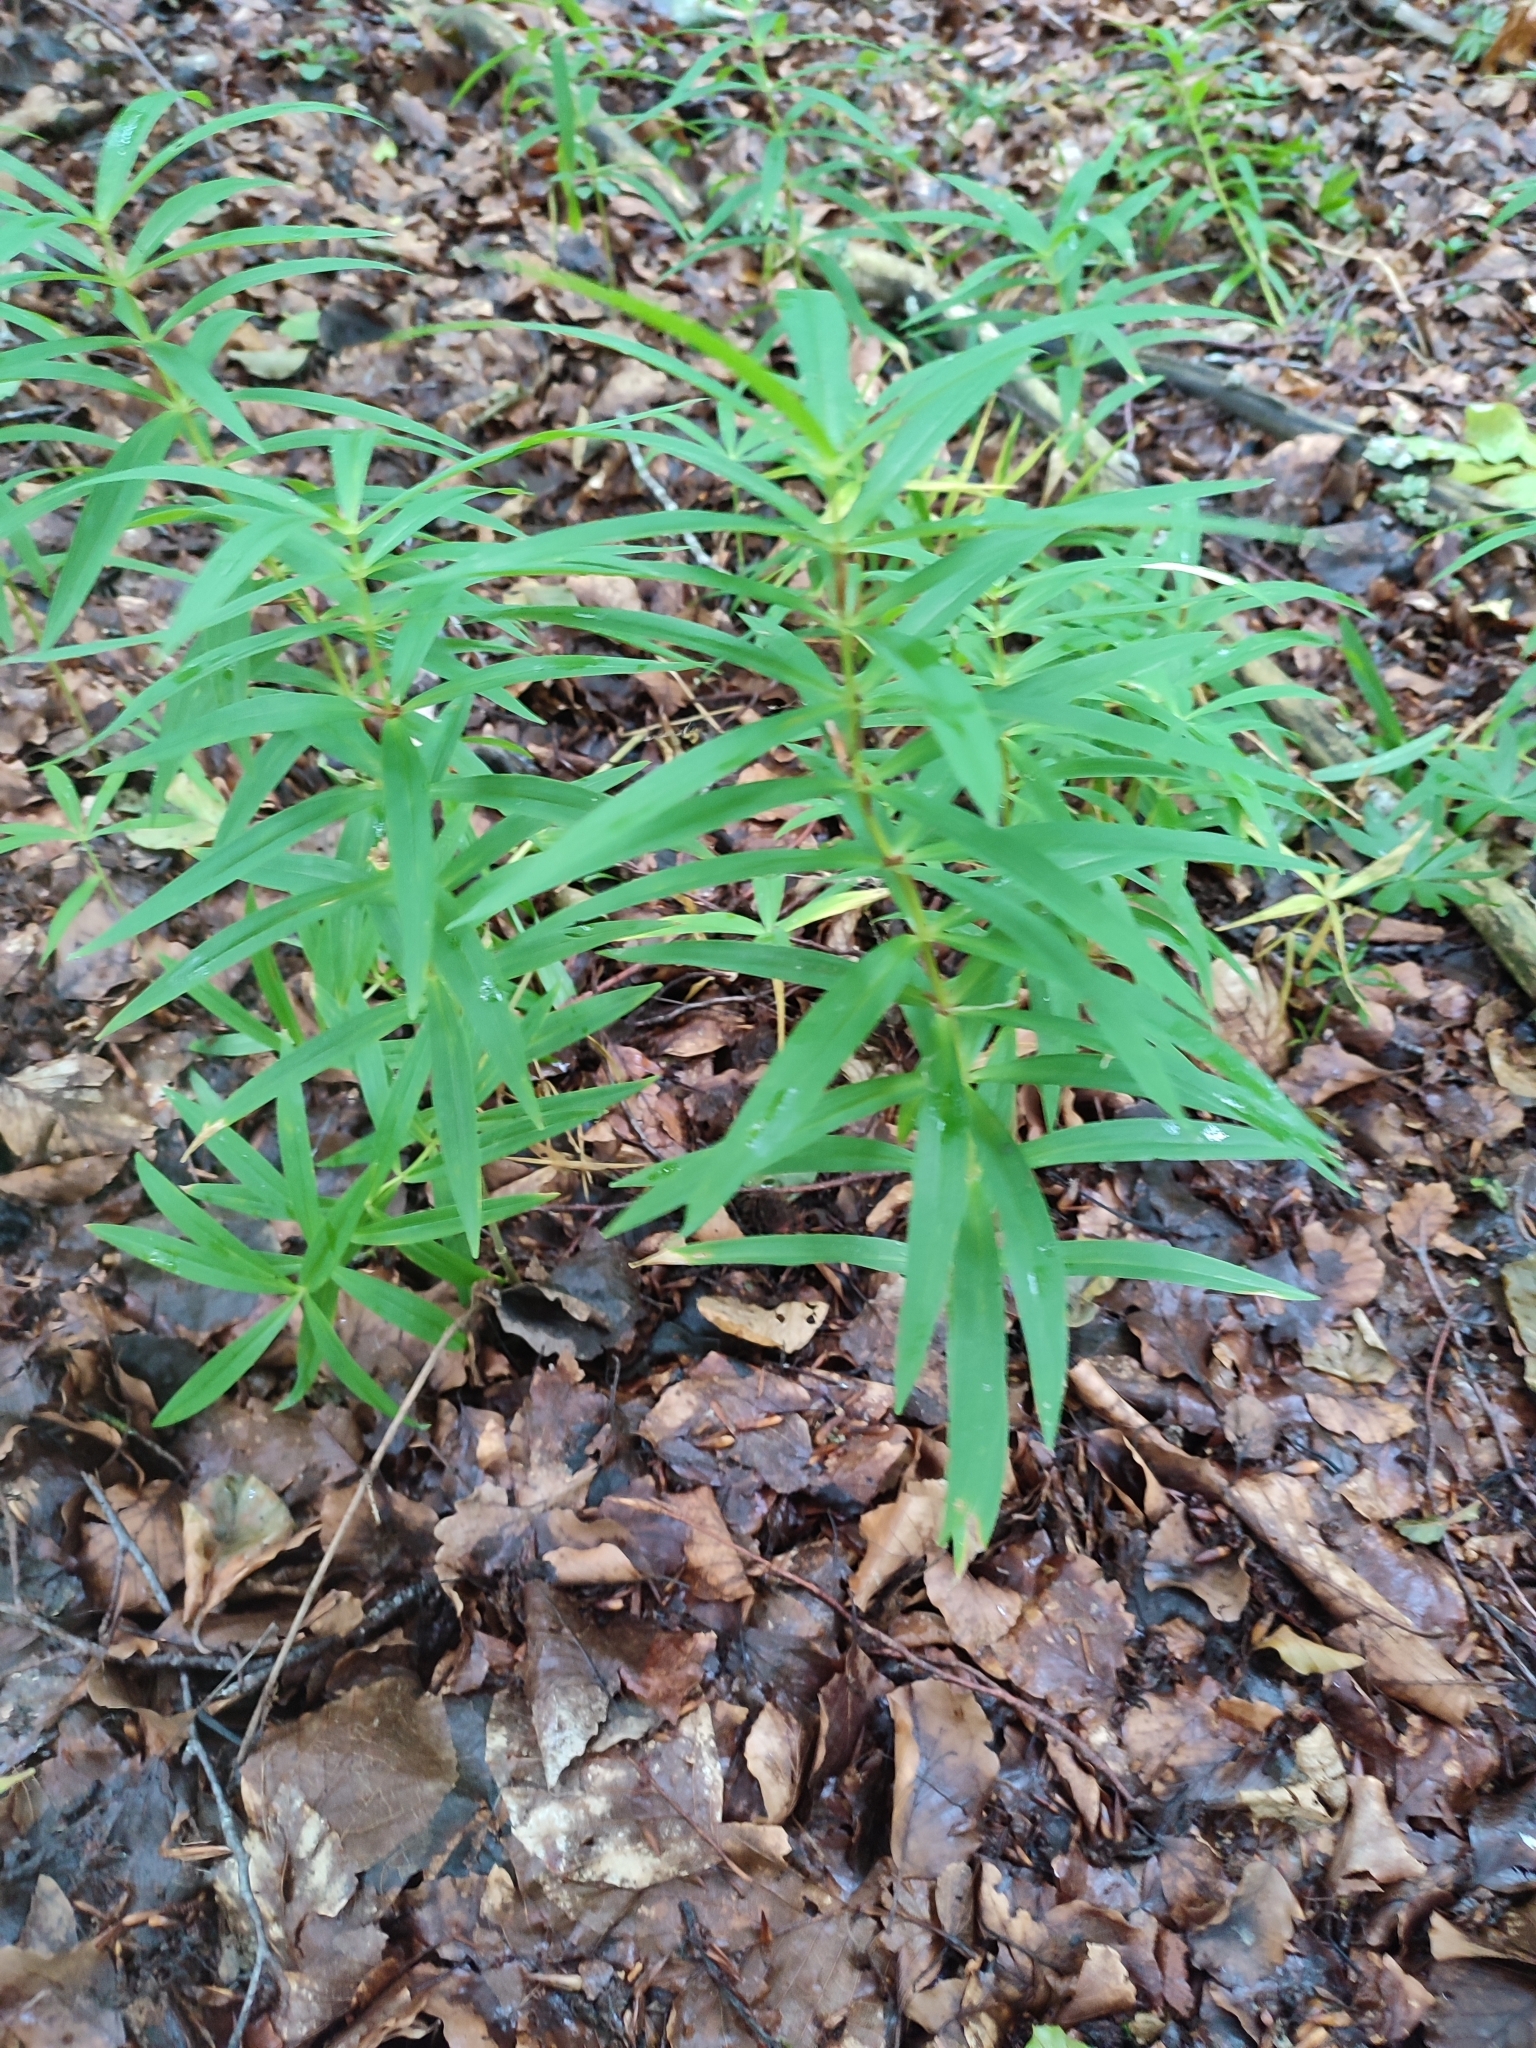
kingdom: Plantae
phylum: Tracheophyta
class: Liliopsida
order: Asparagales
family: Asparagaceae
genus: Polygonatum
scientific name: Polygonatum verticillatum
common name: Whorled solomon's-seal
